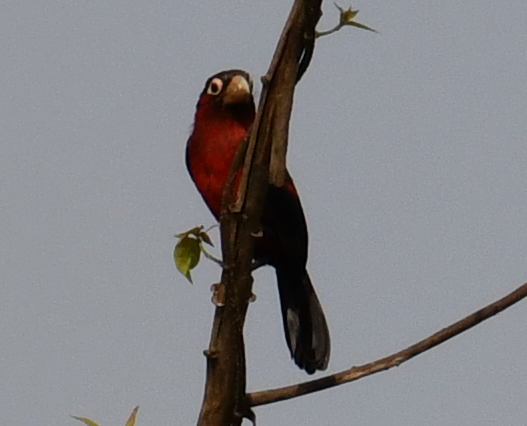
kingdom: Animalia
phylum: Chordata
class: Aves
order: Piciformes
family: Lybiidae
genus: Lybius
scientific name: Lybius bidentatus
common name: Double-toothed barbet
